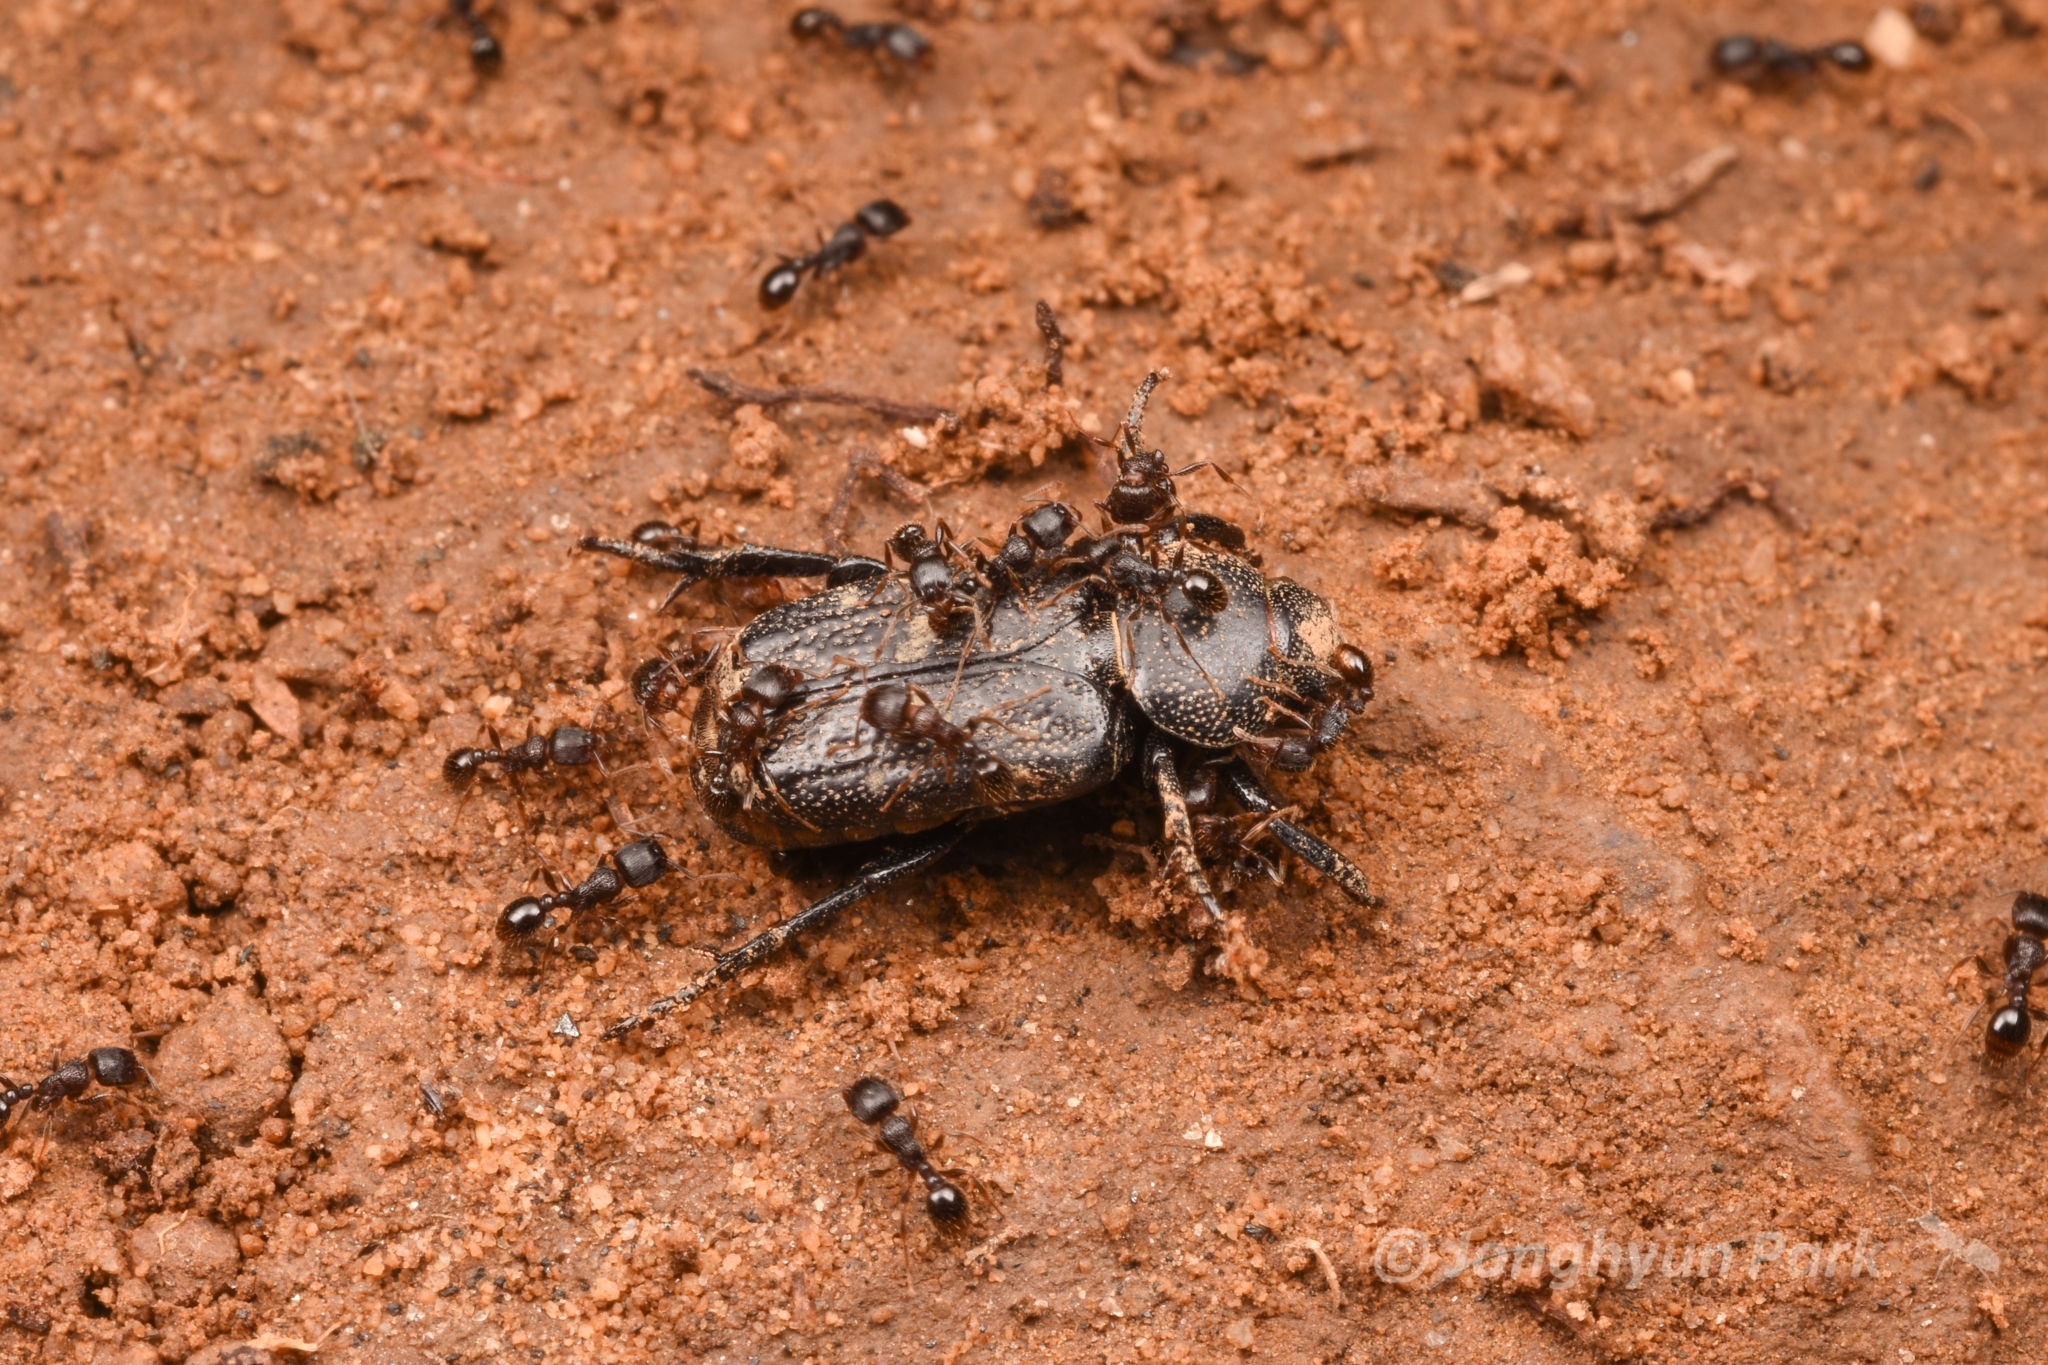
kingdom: Animalia
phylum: Arthropoda
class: Insecta
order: Coleoptera
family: Scarabaeidae
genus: Clinterocera
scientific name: Clinterocera scabrosa
